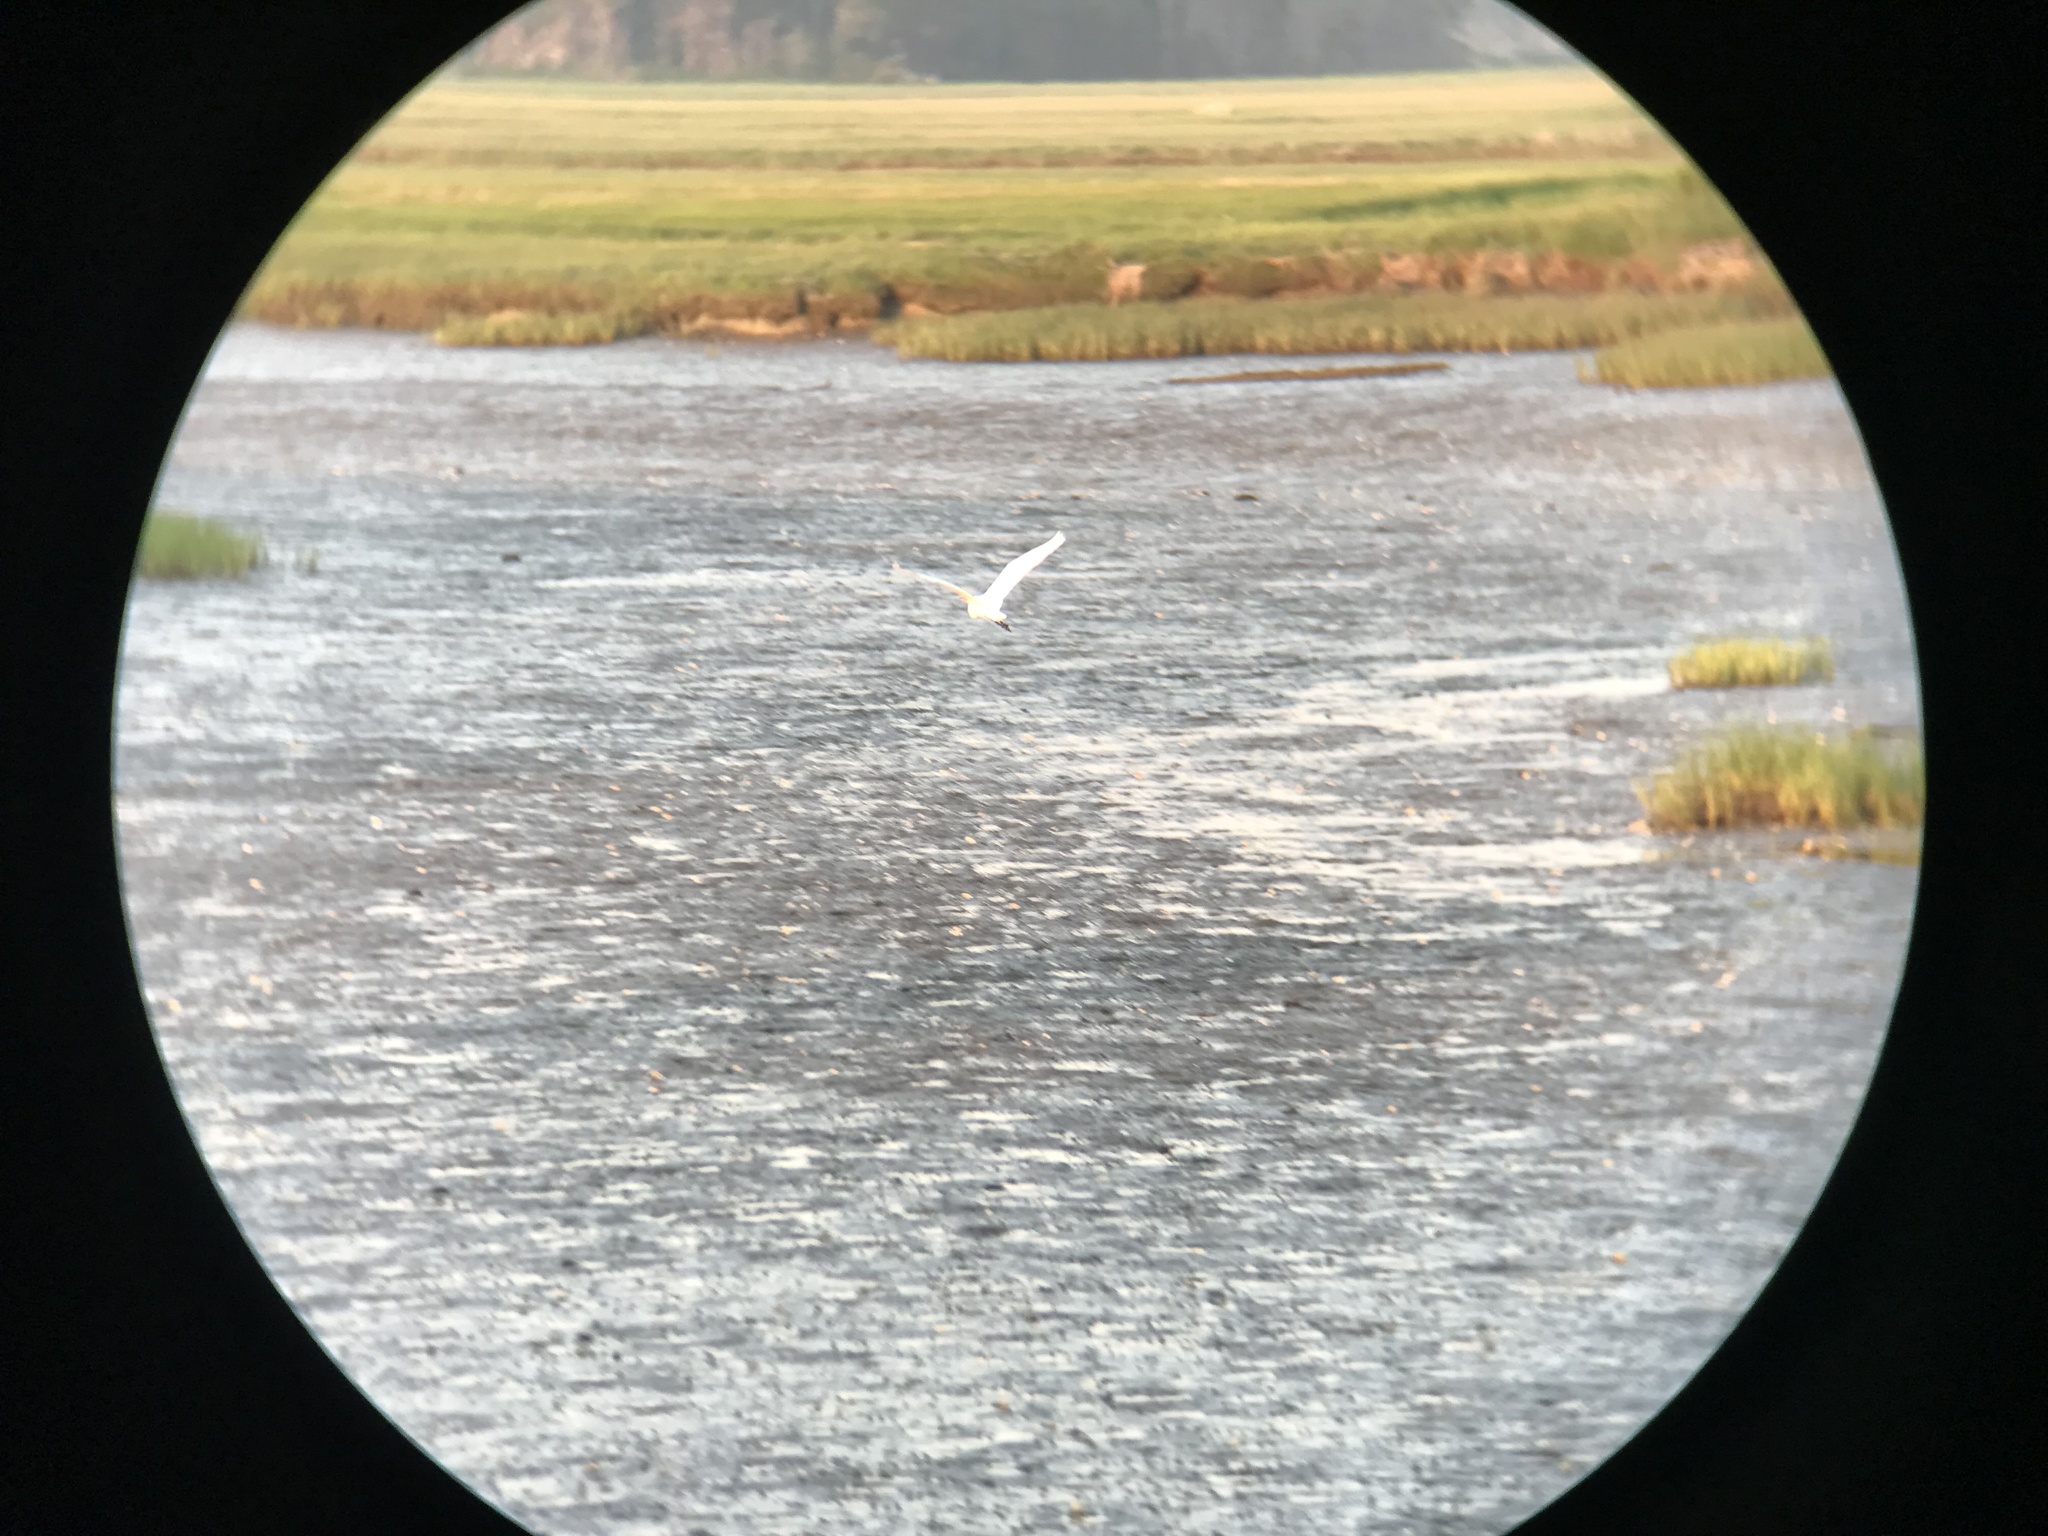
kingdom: Animalia
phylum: Chordata
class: Aves
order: Pelecaniformes
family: Ardeidae
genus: Ardea
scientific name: Ardea alba
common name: Great egret
